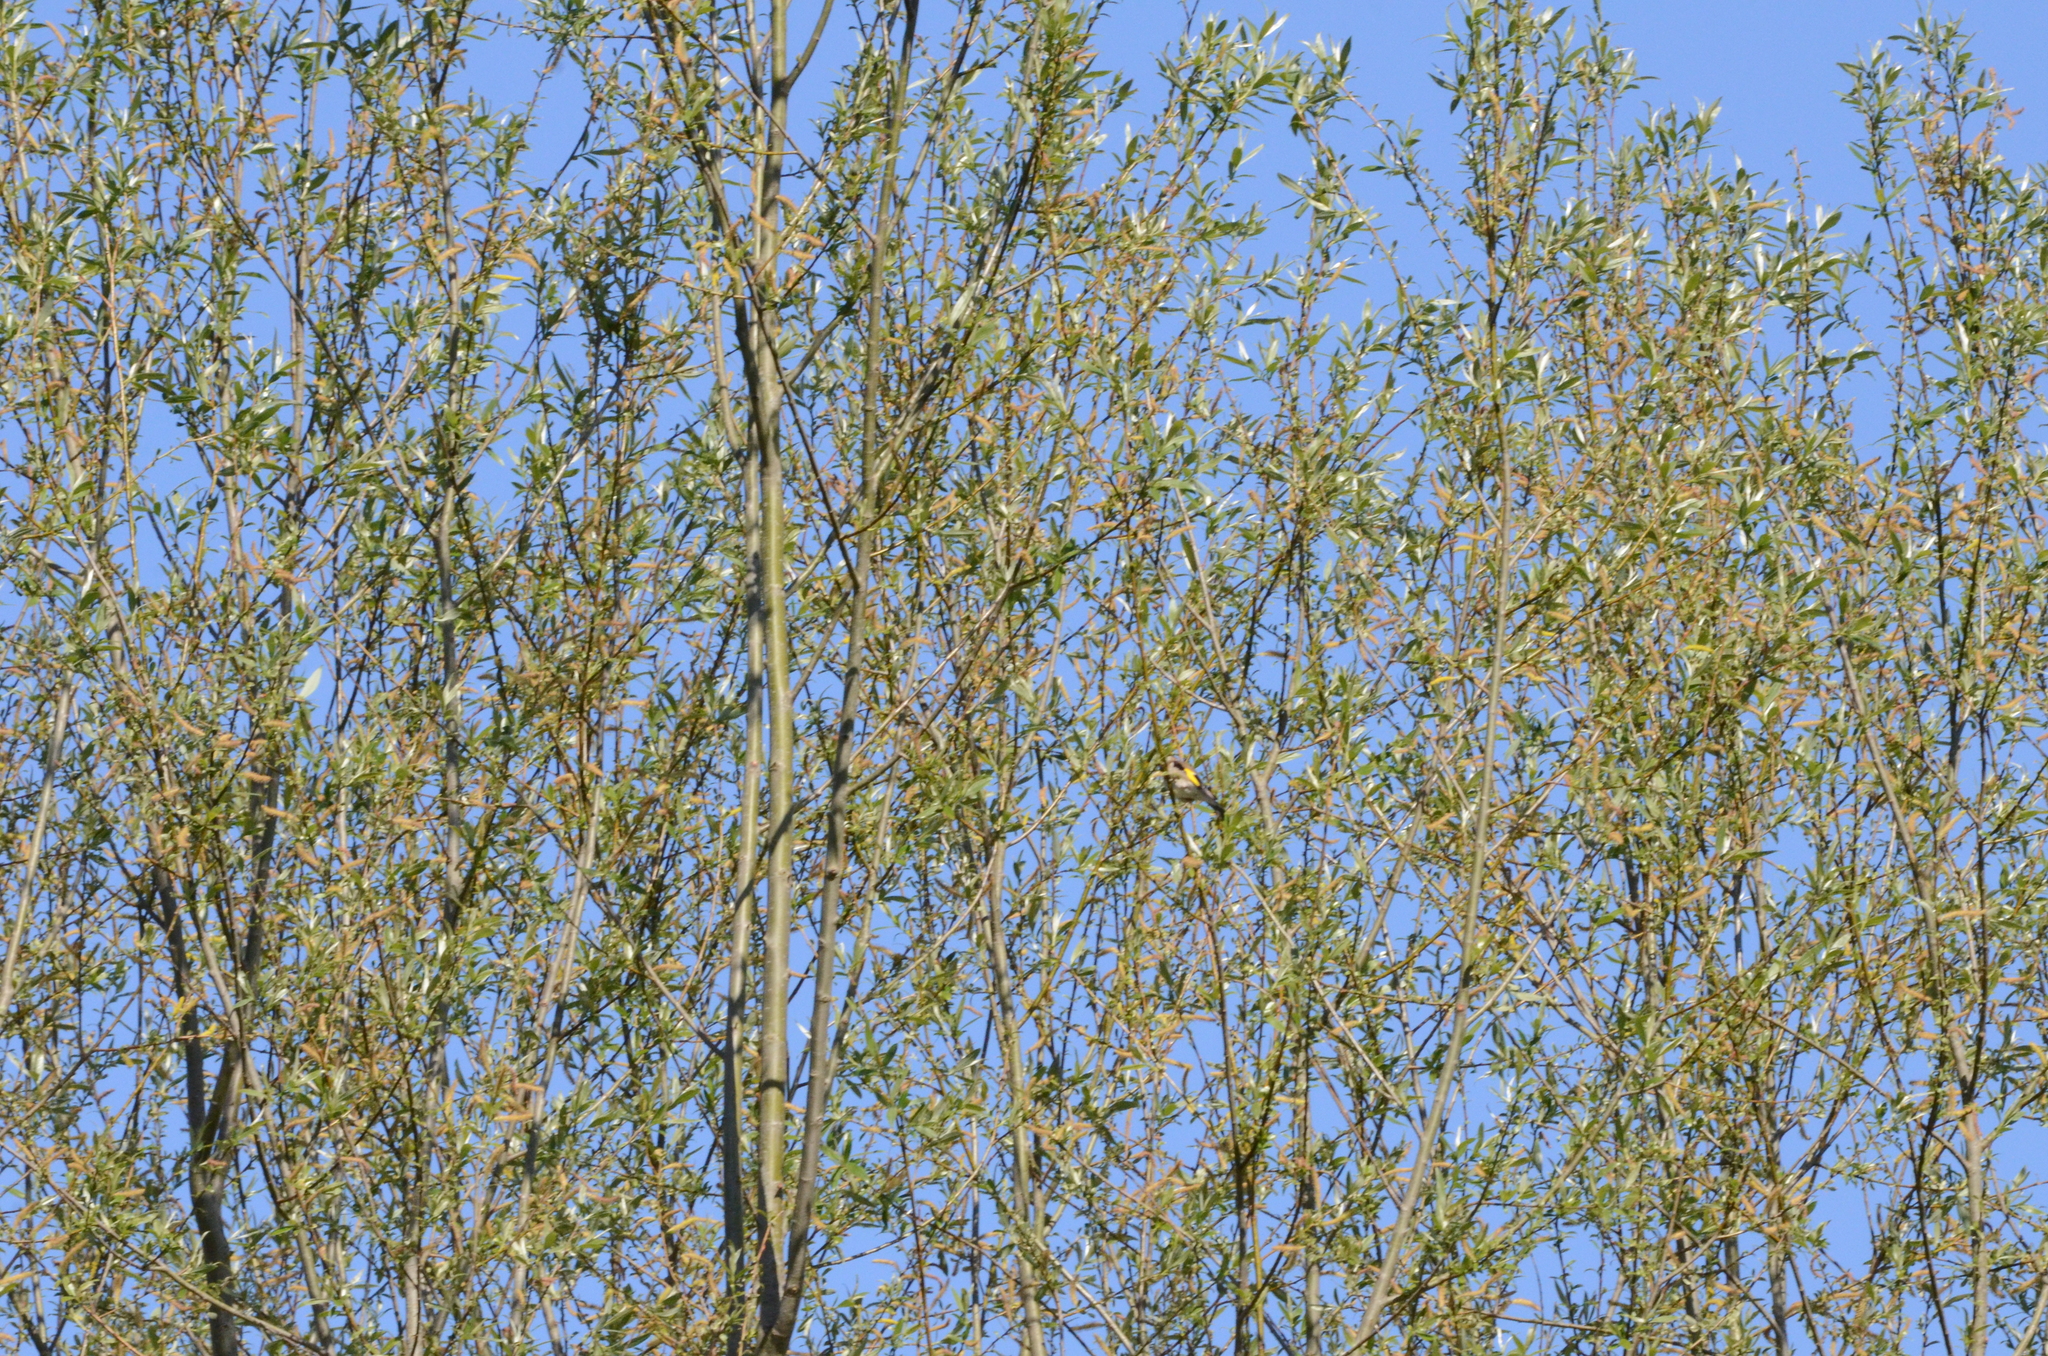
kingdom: Animalia
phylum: Chordata
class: Aves
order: Passeriformes
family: Fringillidae
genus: Carduelis
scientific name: Carduelis carduelis
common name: European goldfinch
